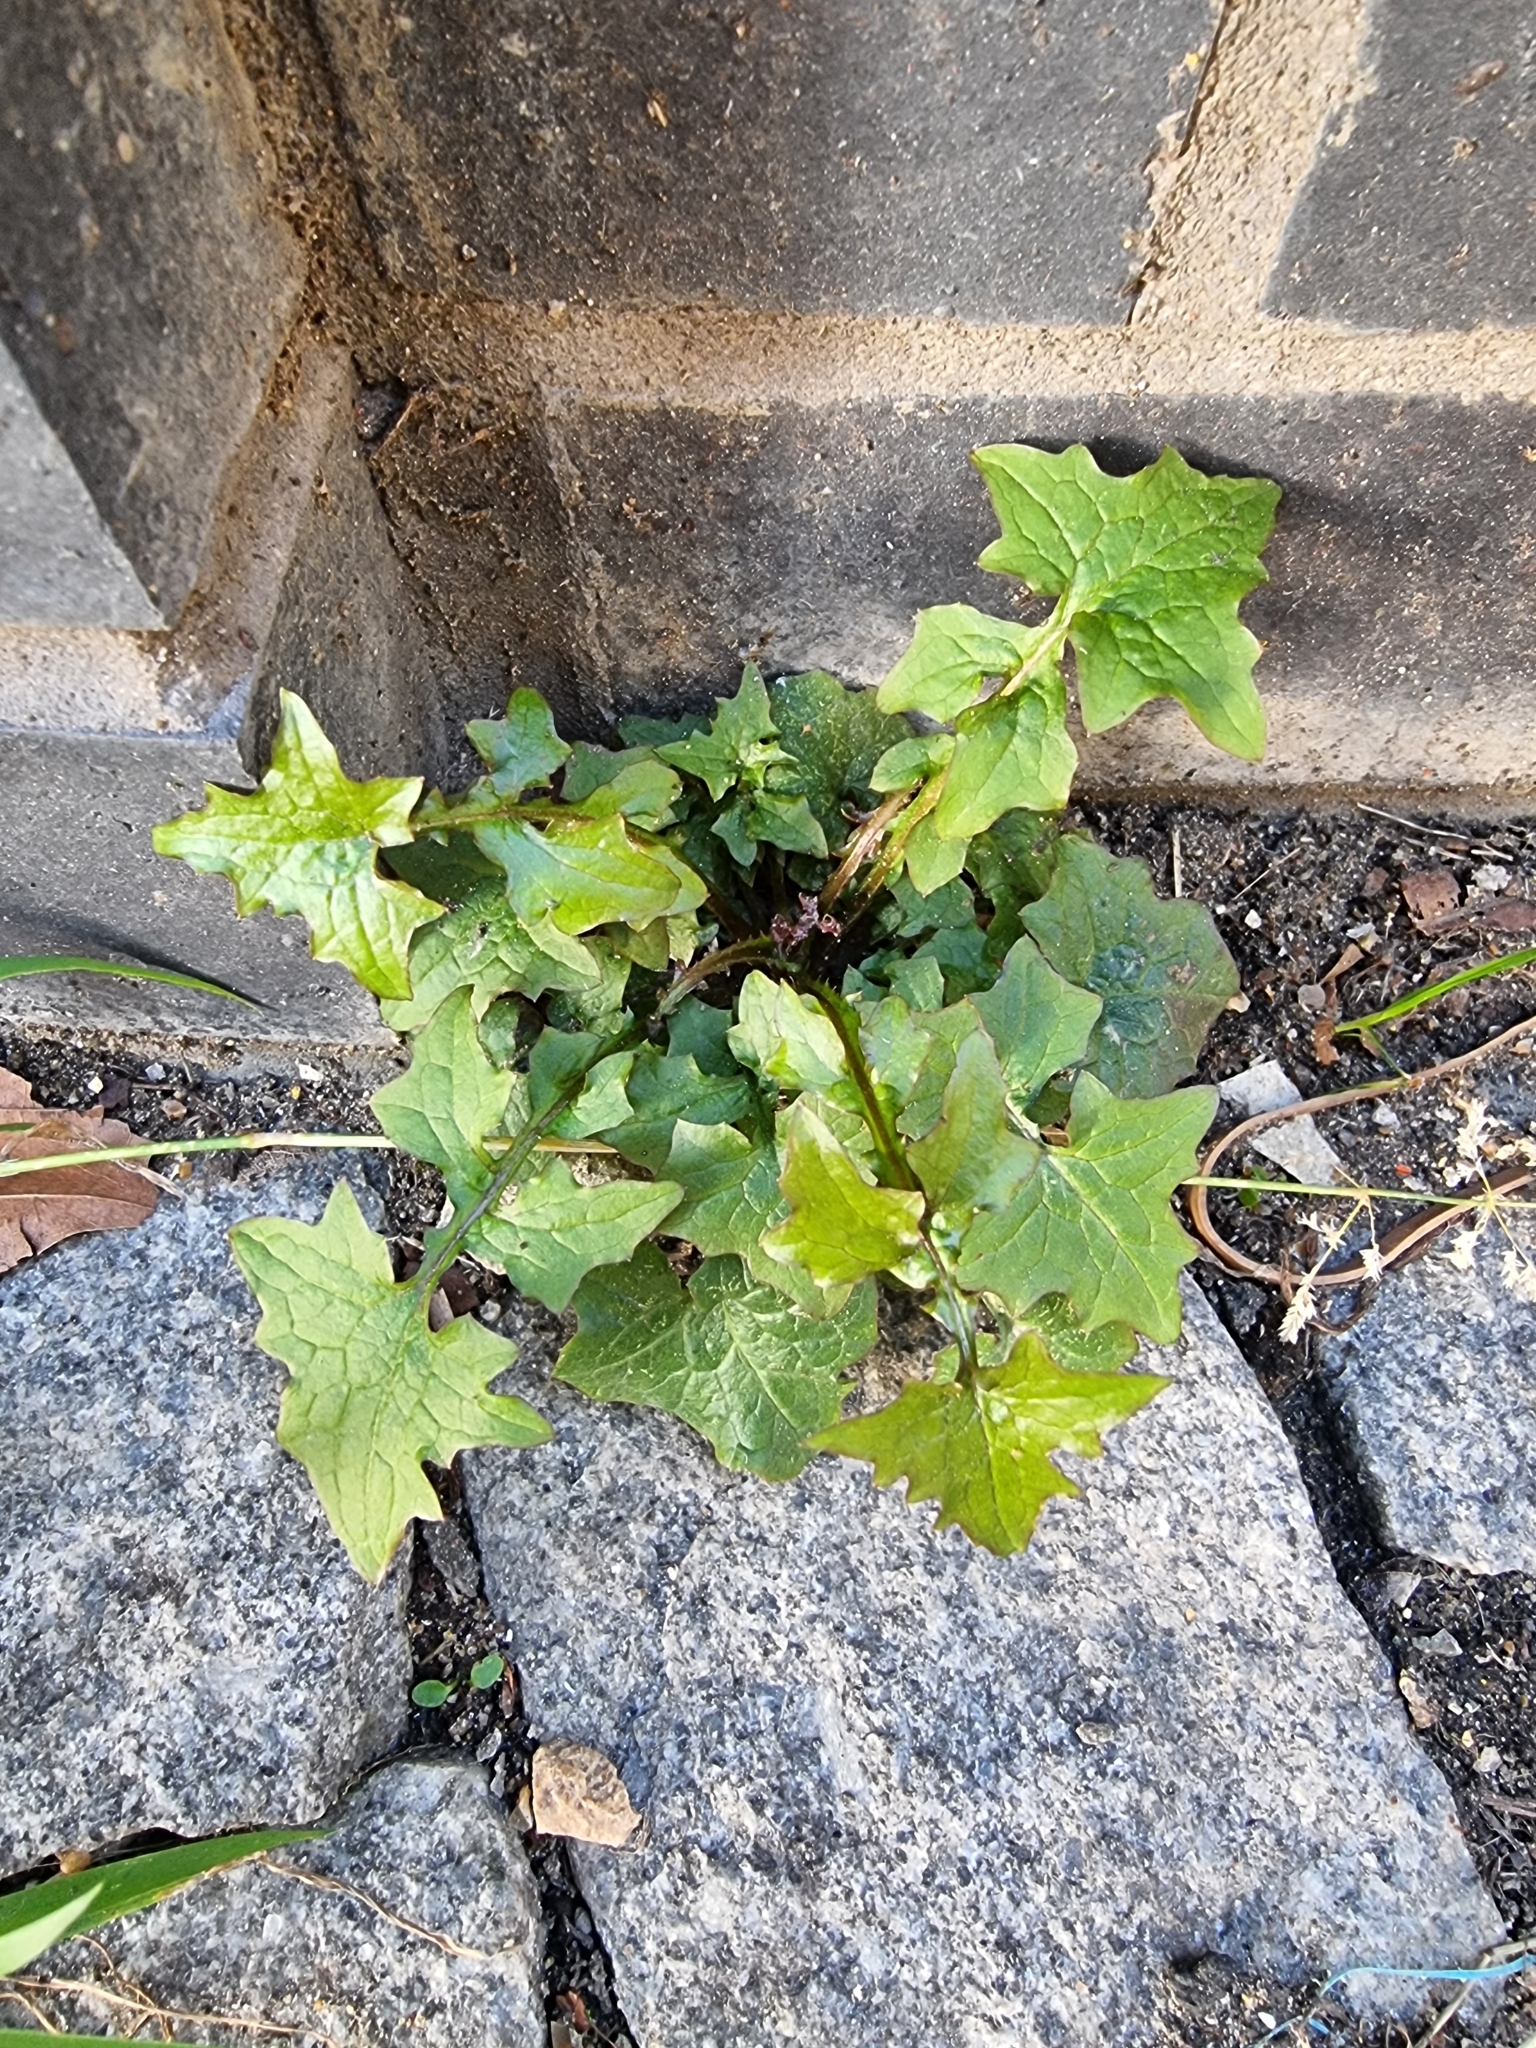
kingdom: Plantae
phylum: Tracheophyta
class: Magnoliopsida
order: Asterales
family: Asteraceae
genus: Mycelis
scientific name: Mycelis muralis
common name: Wall lettuce
